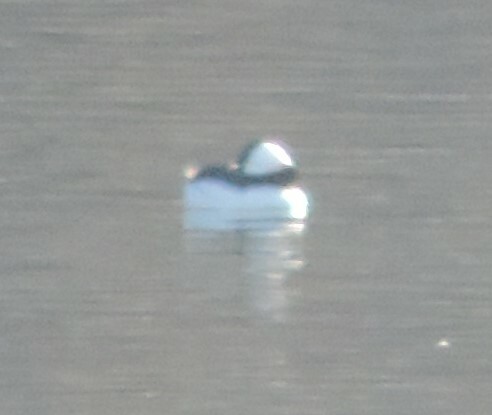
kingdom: Animalia
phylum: Chordata
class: Aves
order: Anseriformes
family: Anatidae
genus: Bucephala
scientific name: Bucephala albeola
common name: Bufflehead
